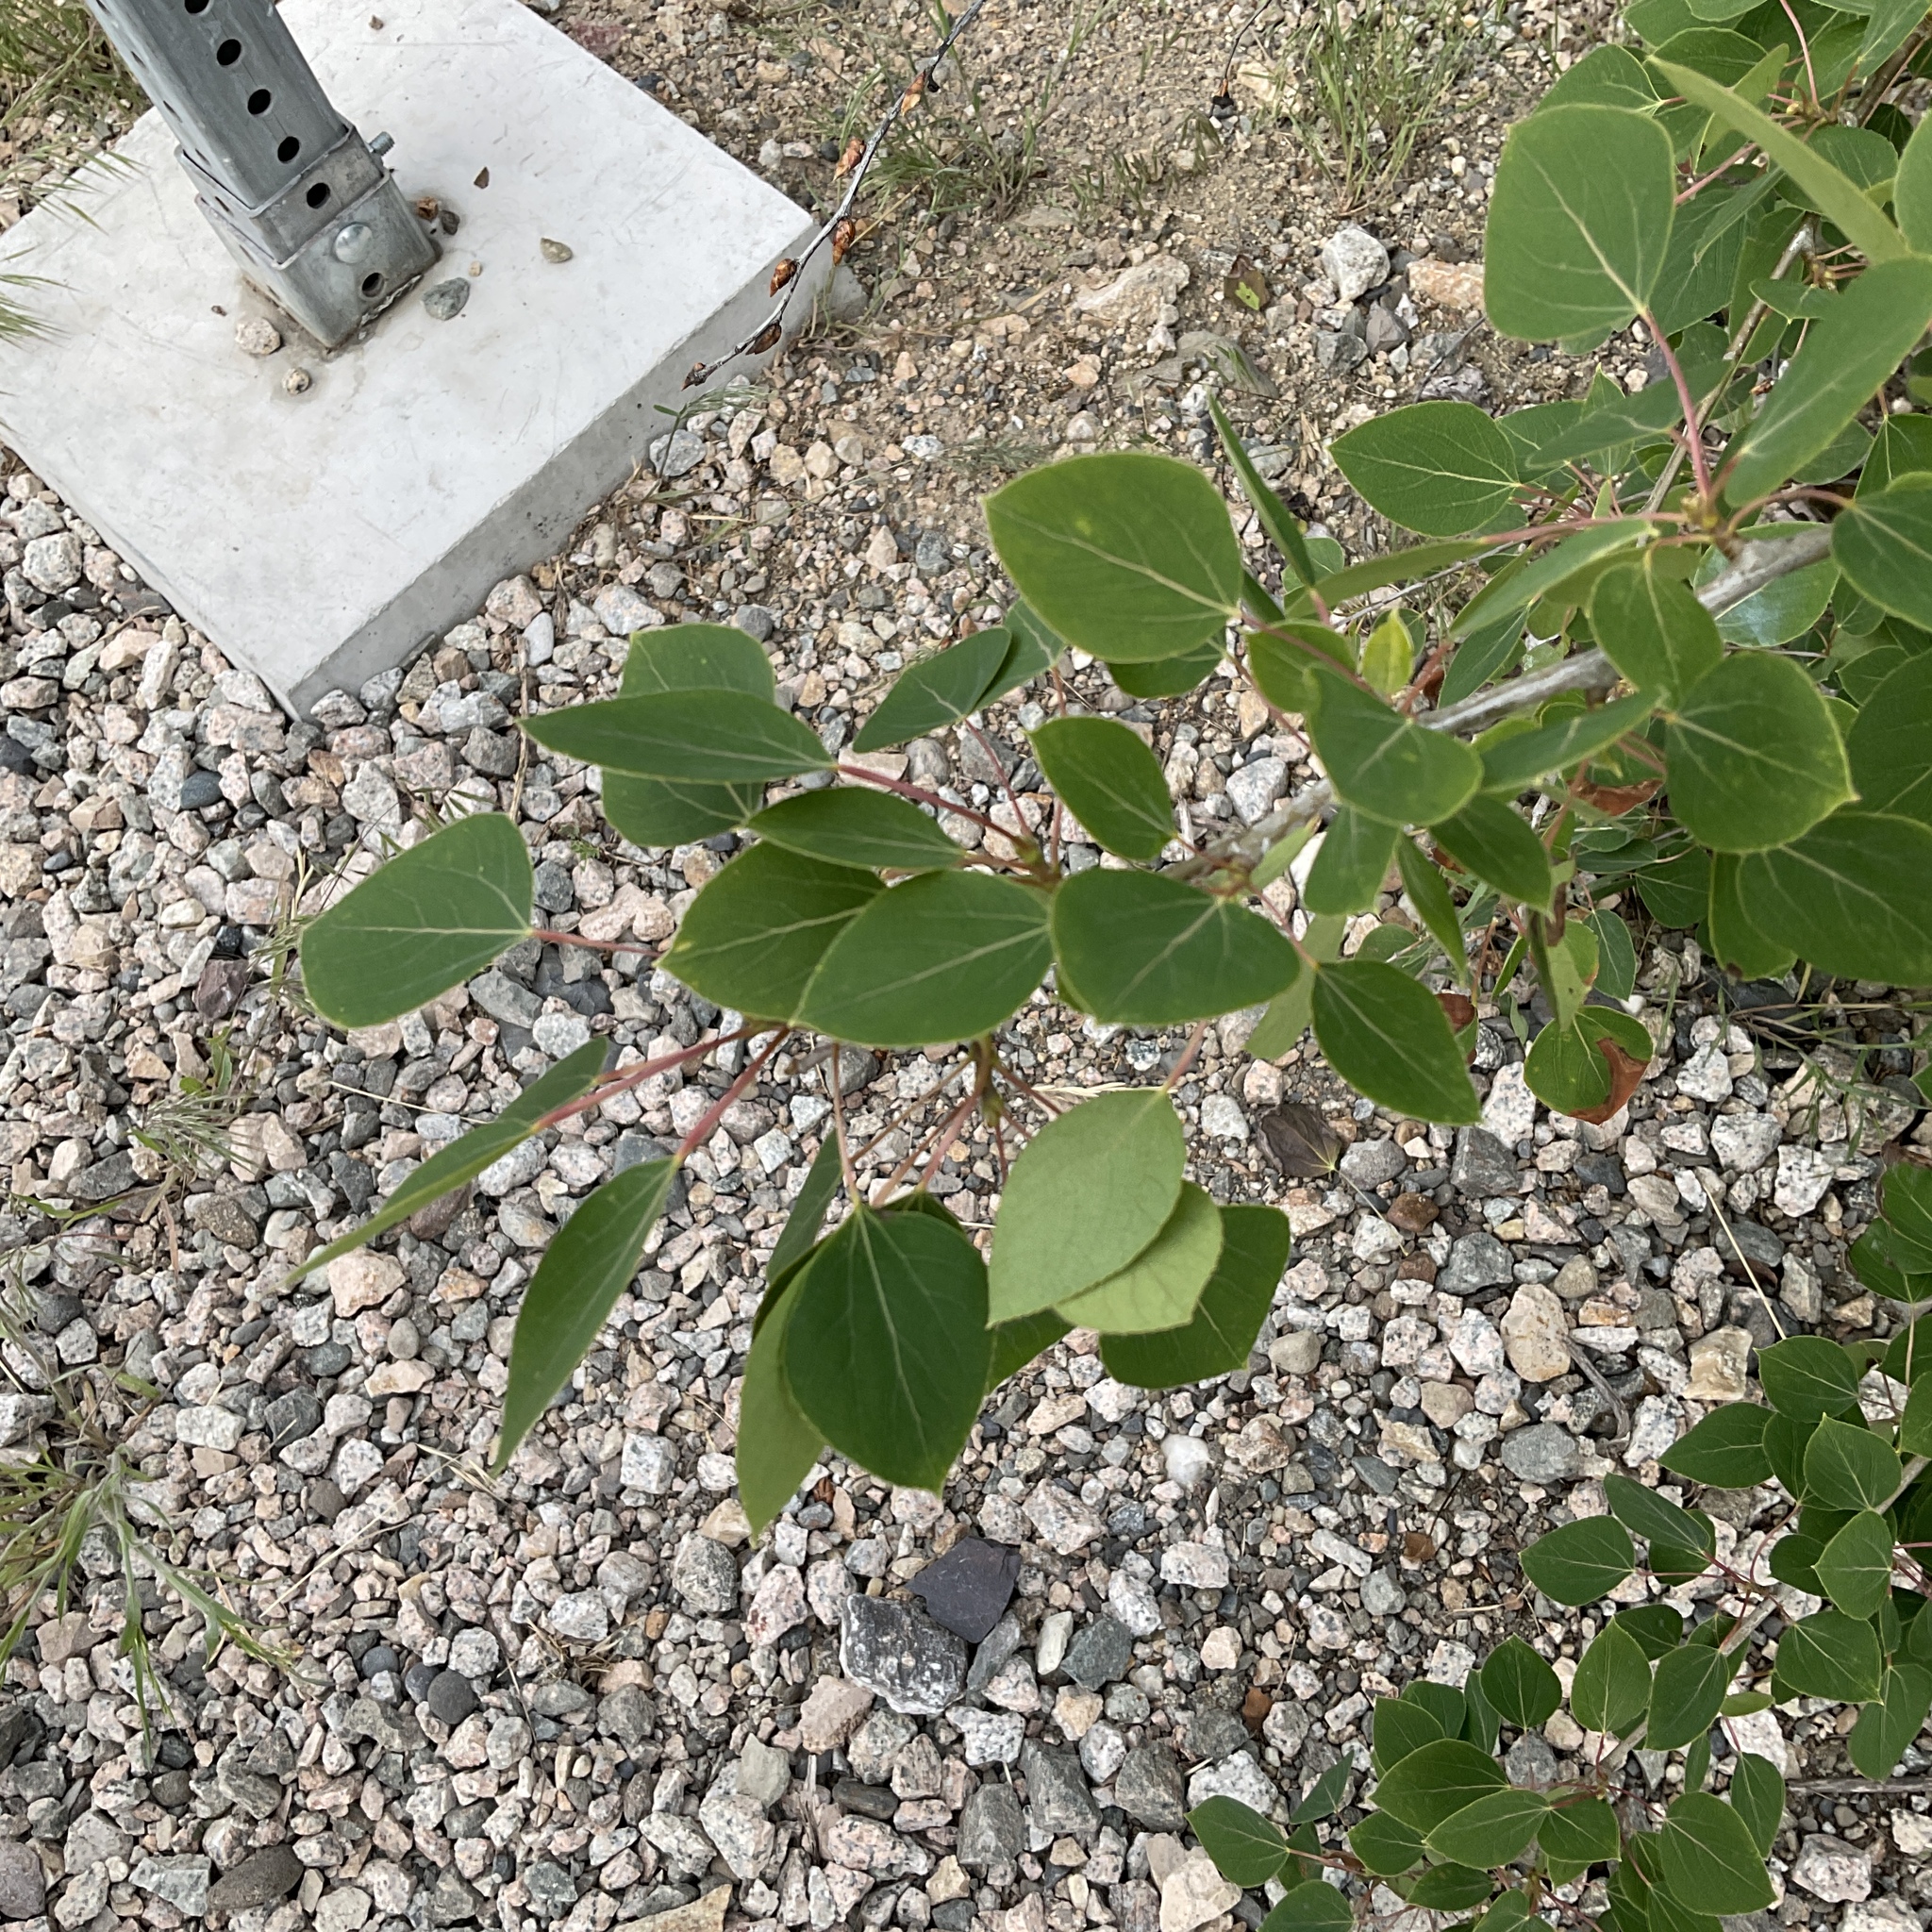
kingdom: Plantae
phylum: Tracheophyta
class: Magnoliopsida
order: Malpighiales
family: Salicaceae
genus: Populus
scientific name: Populus tremuloides
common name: Quaking aspen
